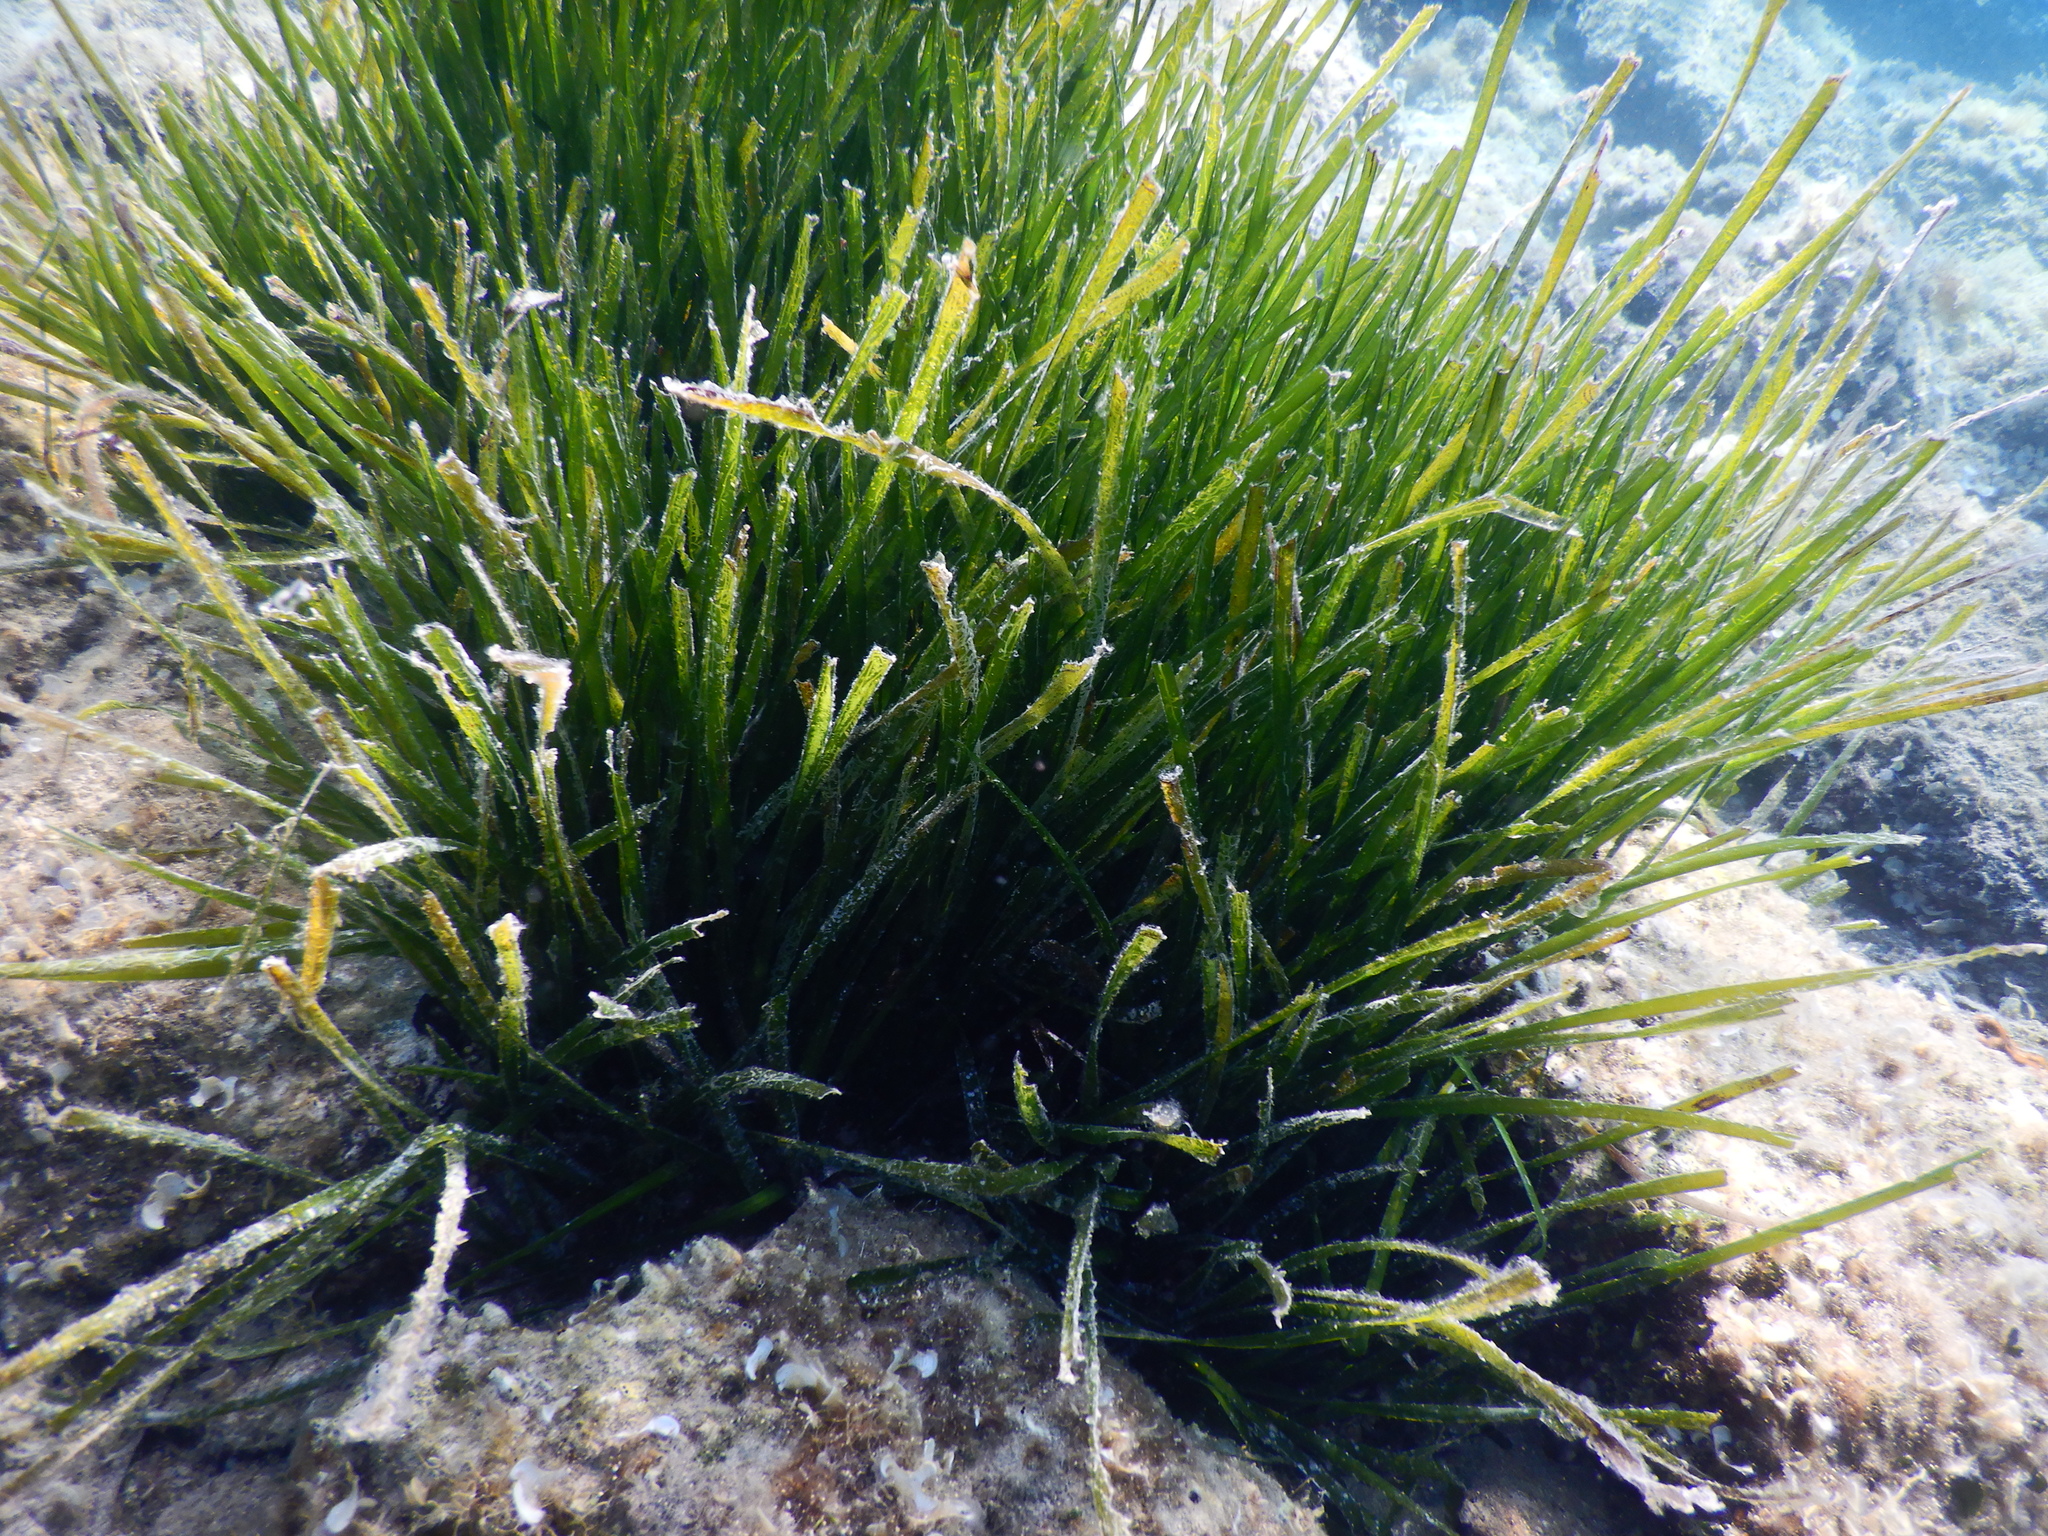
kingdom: Plantae
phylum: Tracheophyta
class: Liliopsida
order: Alismatales
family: Posidoniaceae
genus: Posidonia
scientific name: Posidonia oceanica
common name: Mediterranean tapeweed
